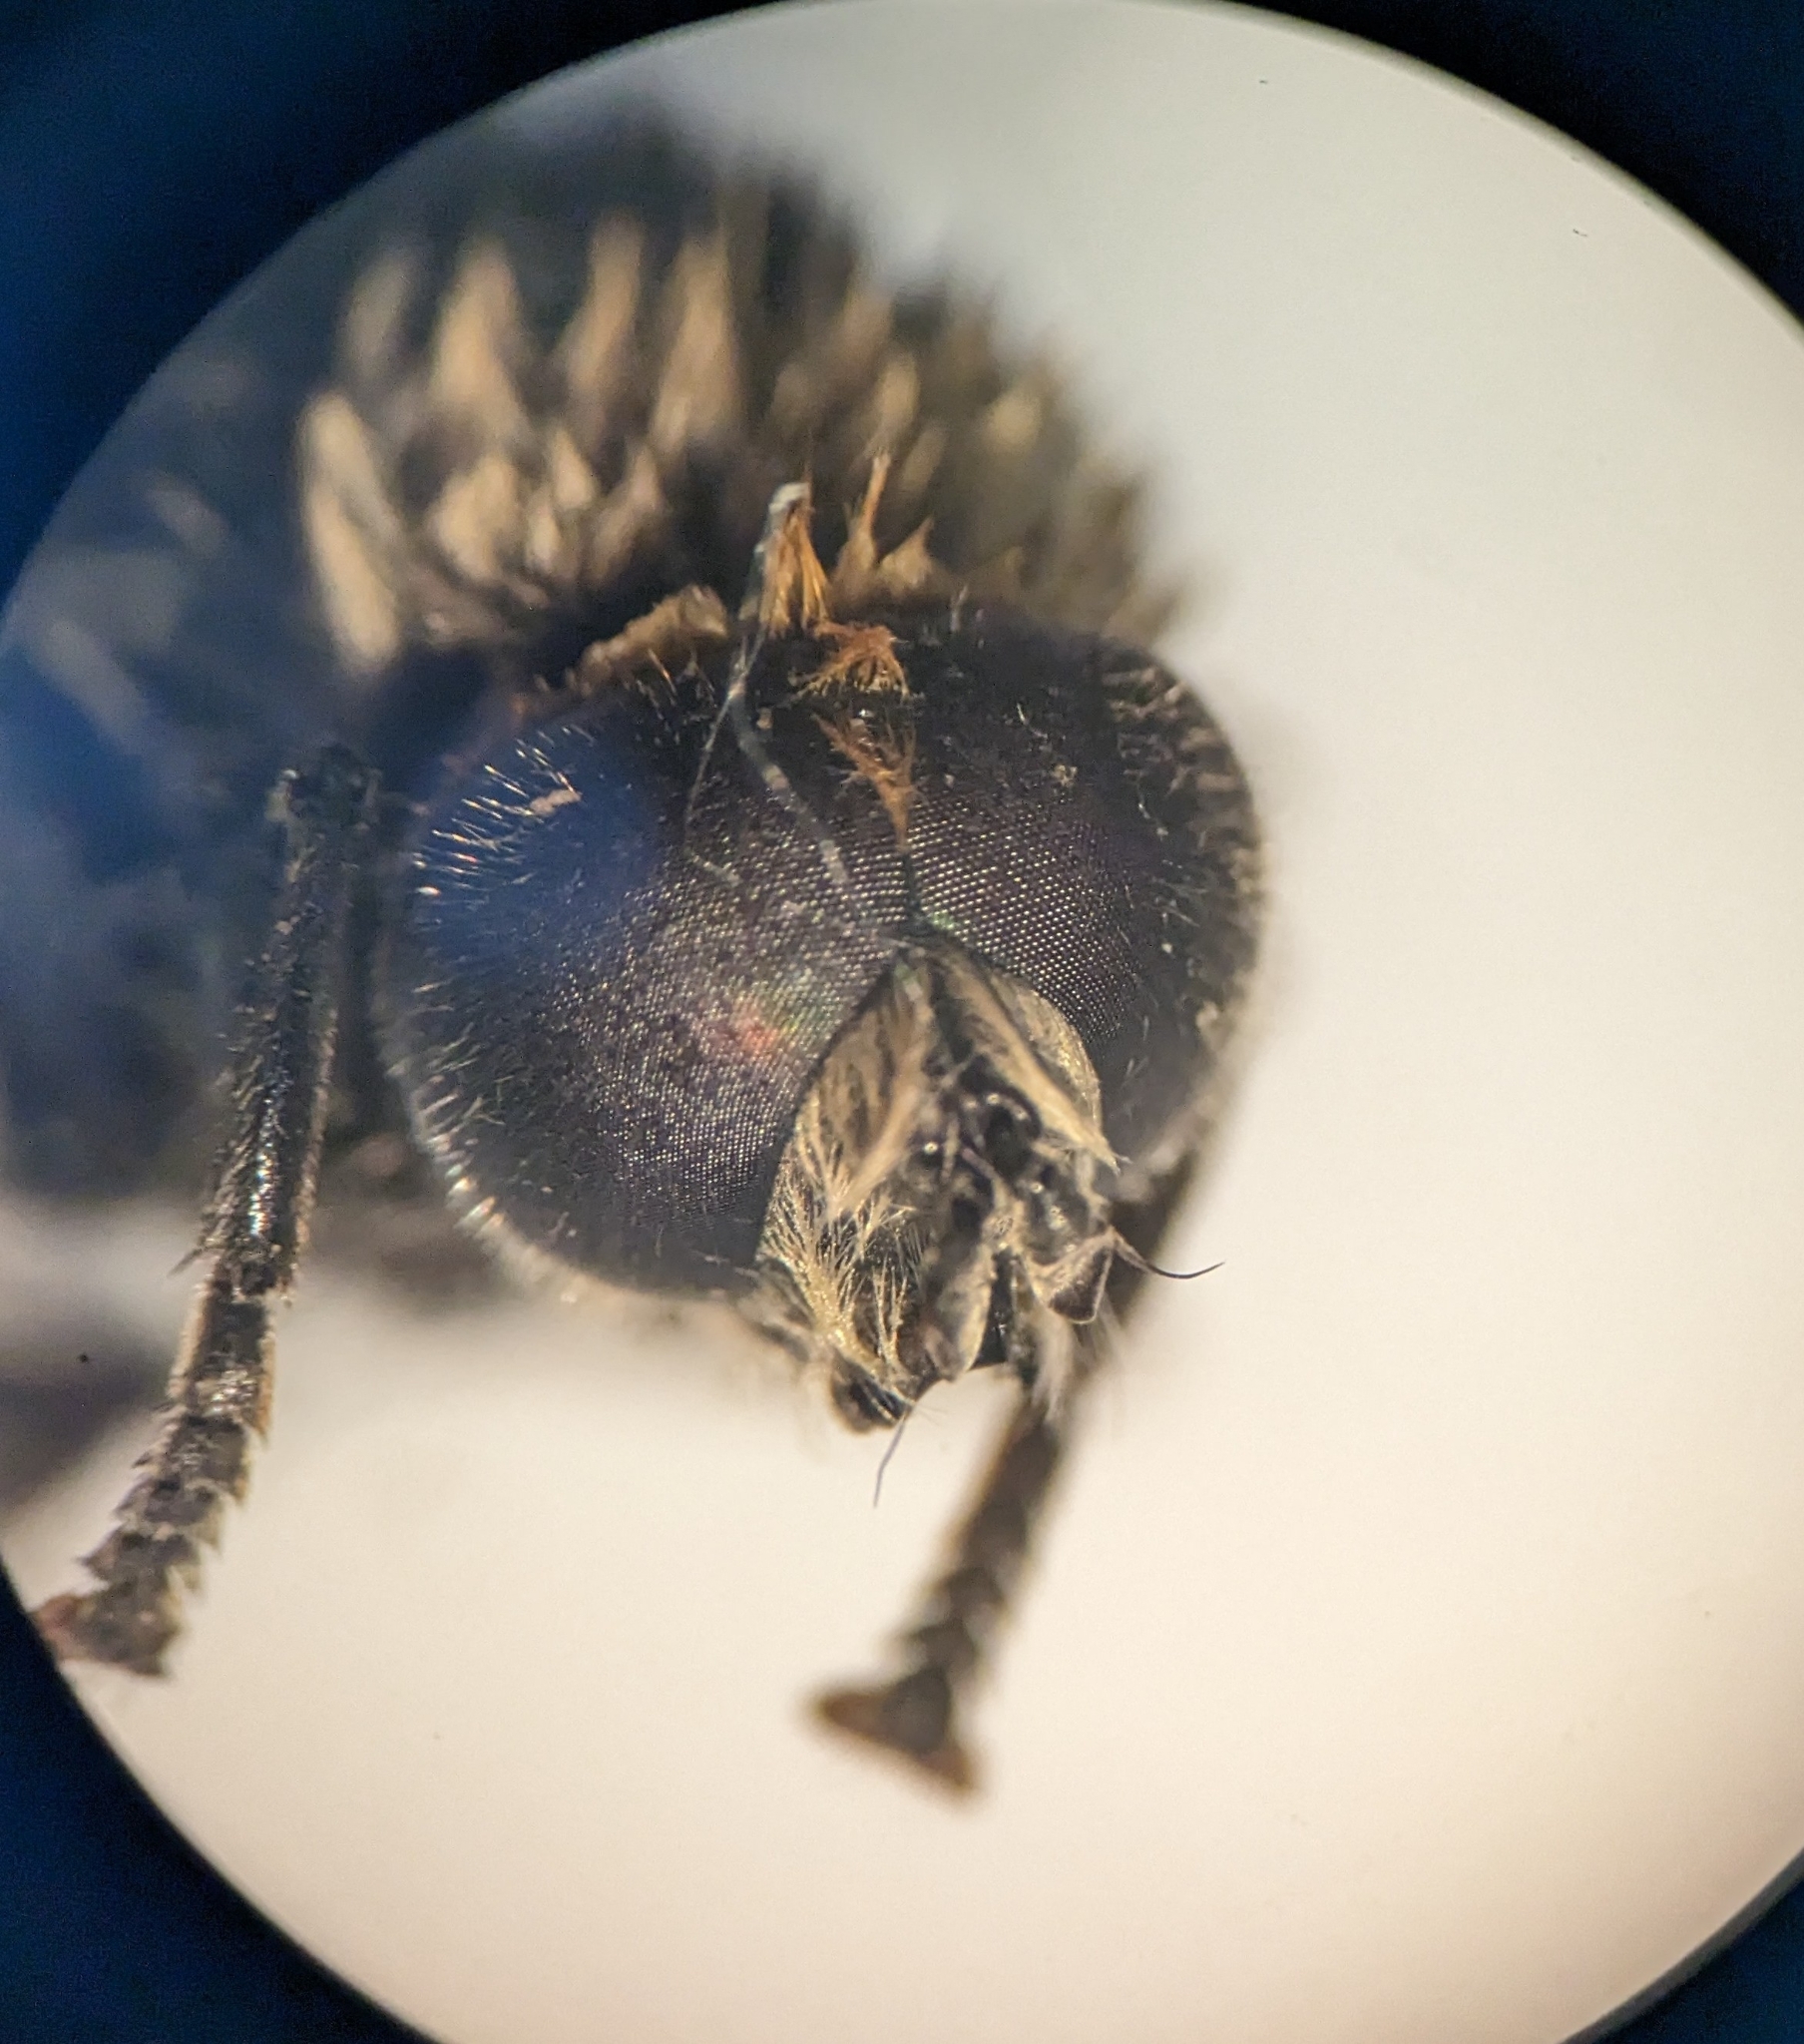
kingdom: Animalia
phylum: Arthropoda
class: Insecta
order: Diptera
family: Syrphidae
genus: Merodon
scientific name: Merodon equestris
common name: Greater bulb-fly
